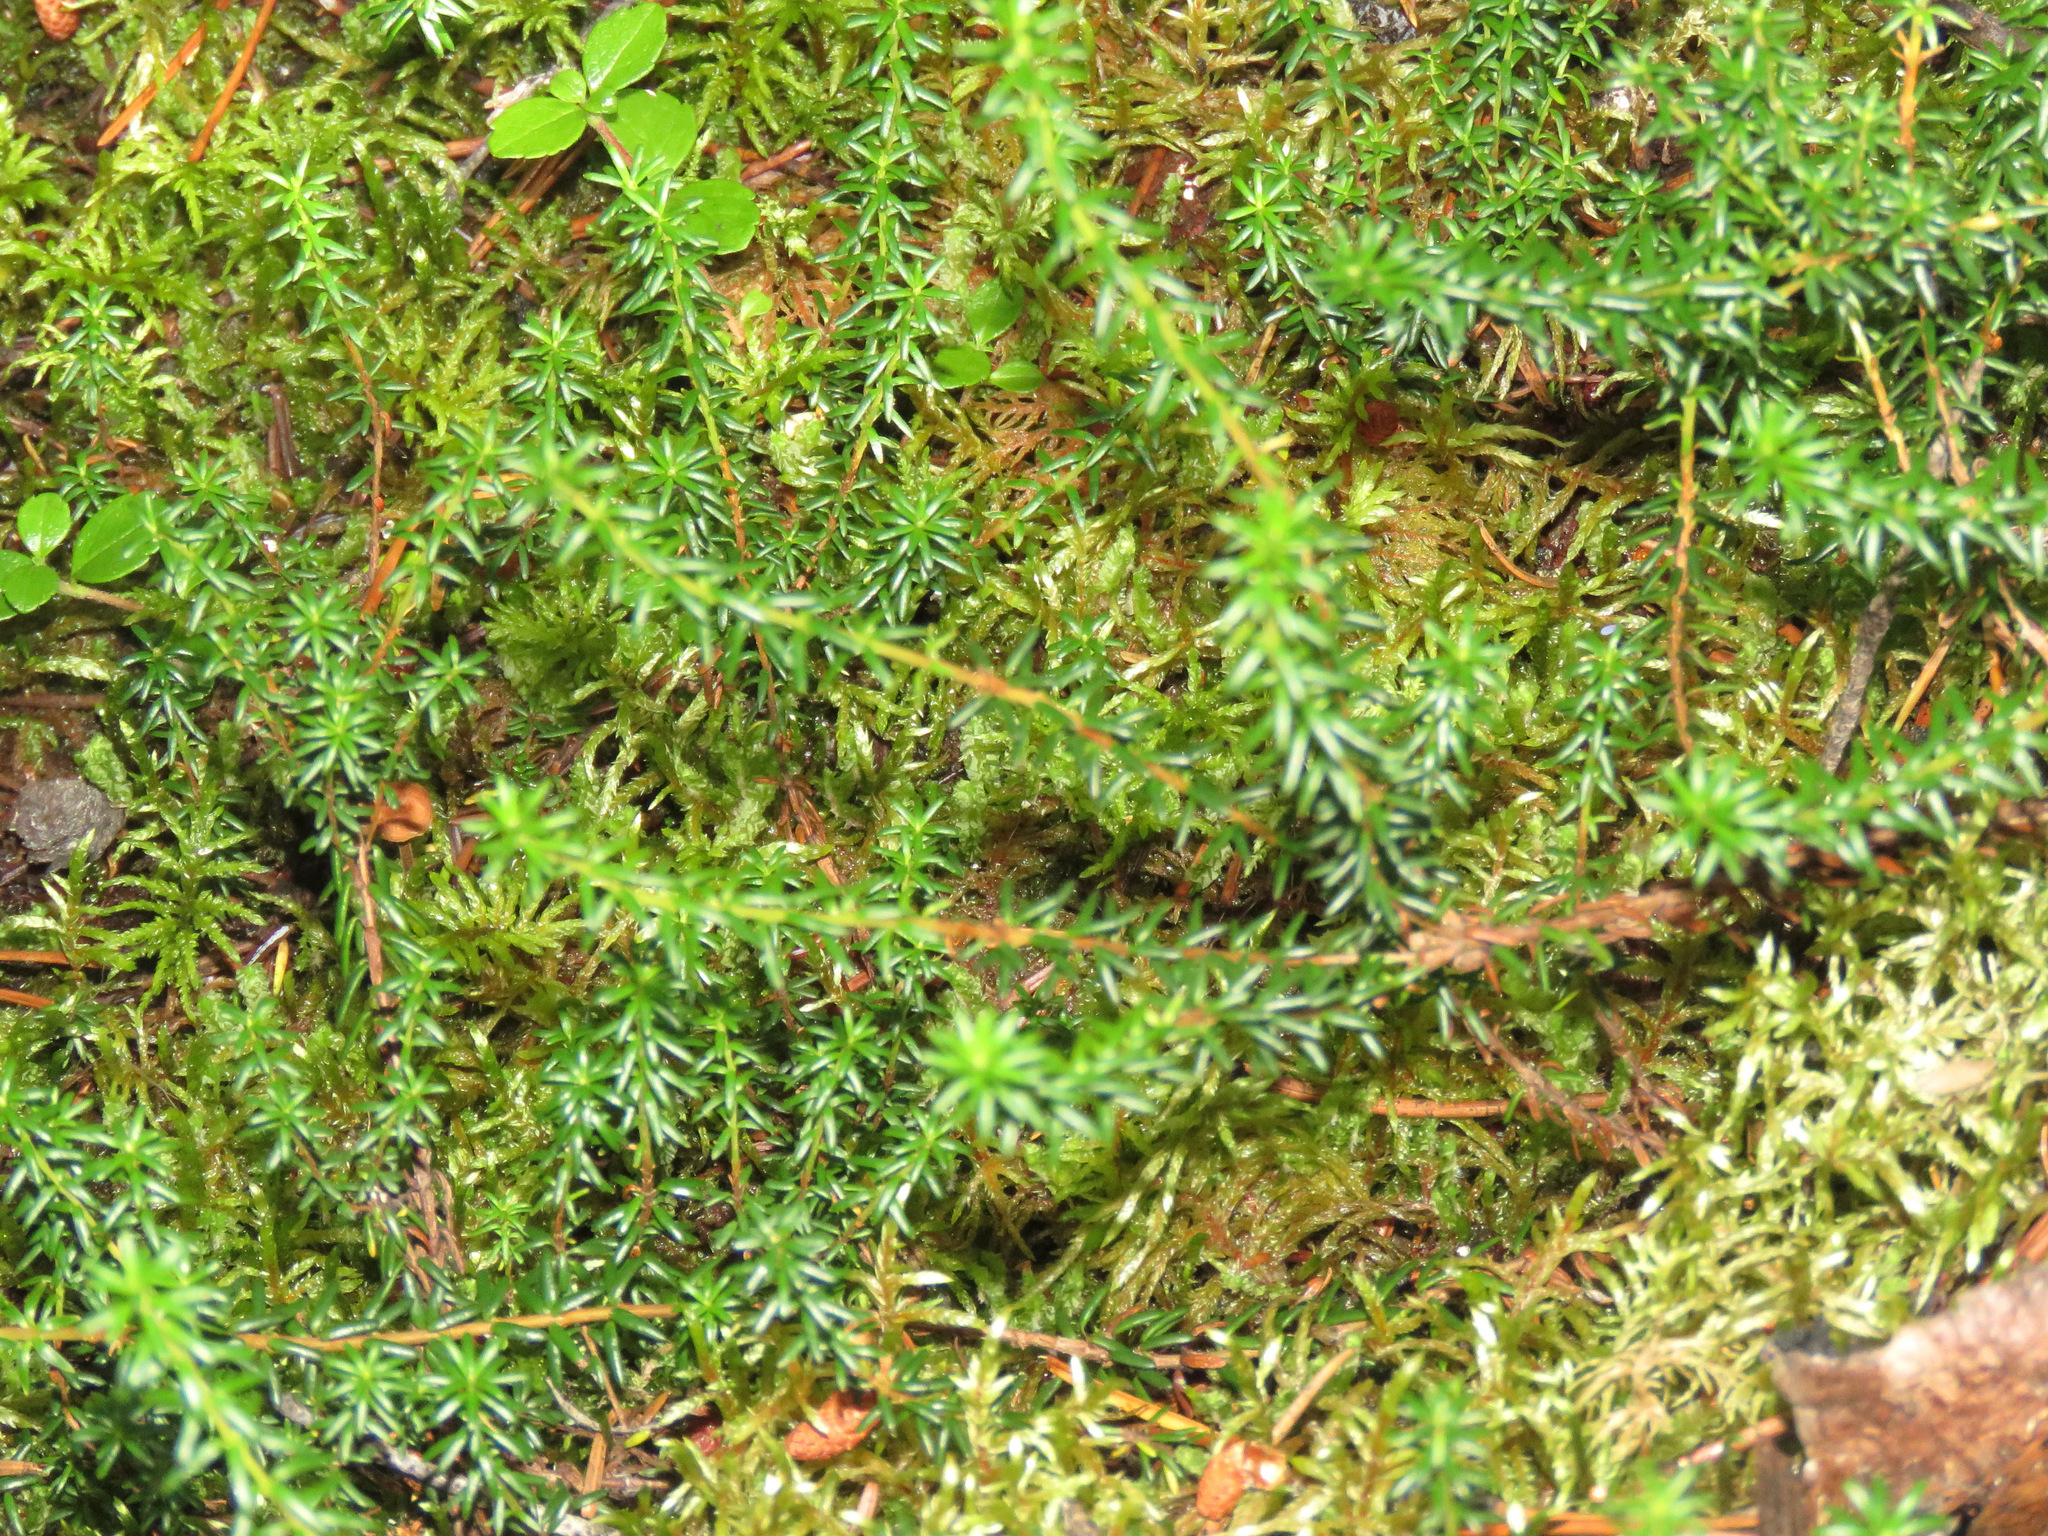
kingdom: Plantae
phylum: Tracheophyta
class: Magnoliopsida
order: Ericales
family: Ericaceae
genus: Empetrum
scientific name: Empetrum nigrum
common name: Black crowberry
